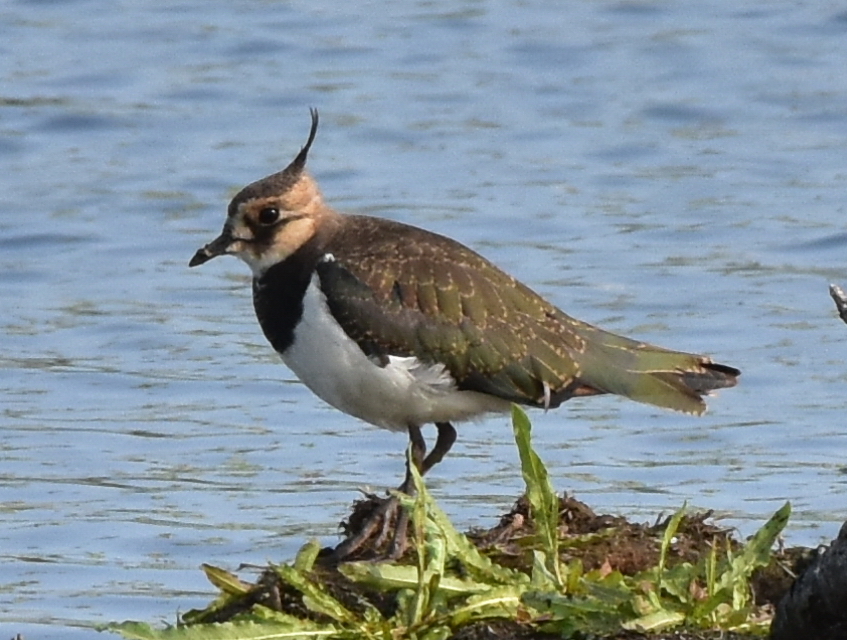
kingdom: Animalia
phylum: Chordata
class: Aves
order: Charadriiformes
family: Charadriidae
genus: Vanellus
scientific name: Vanellus vanellus
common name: Northern lapwing
